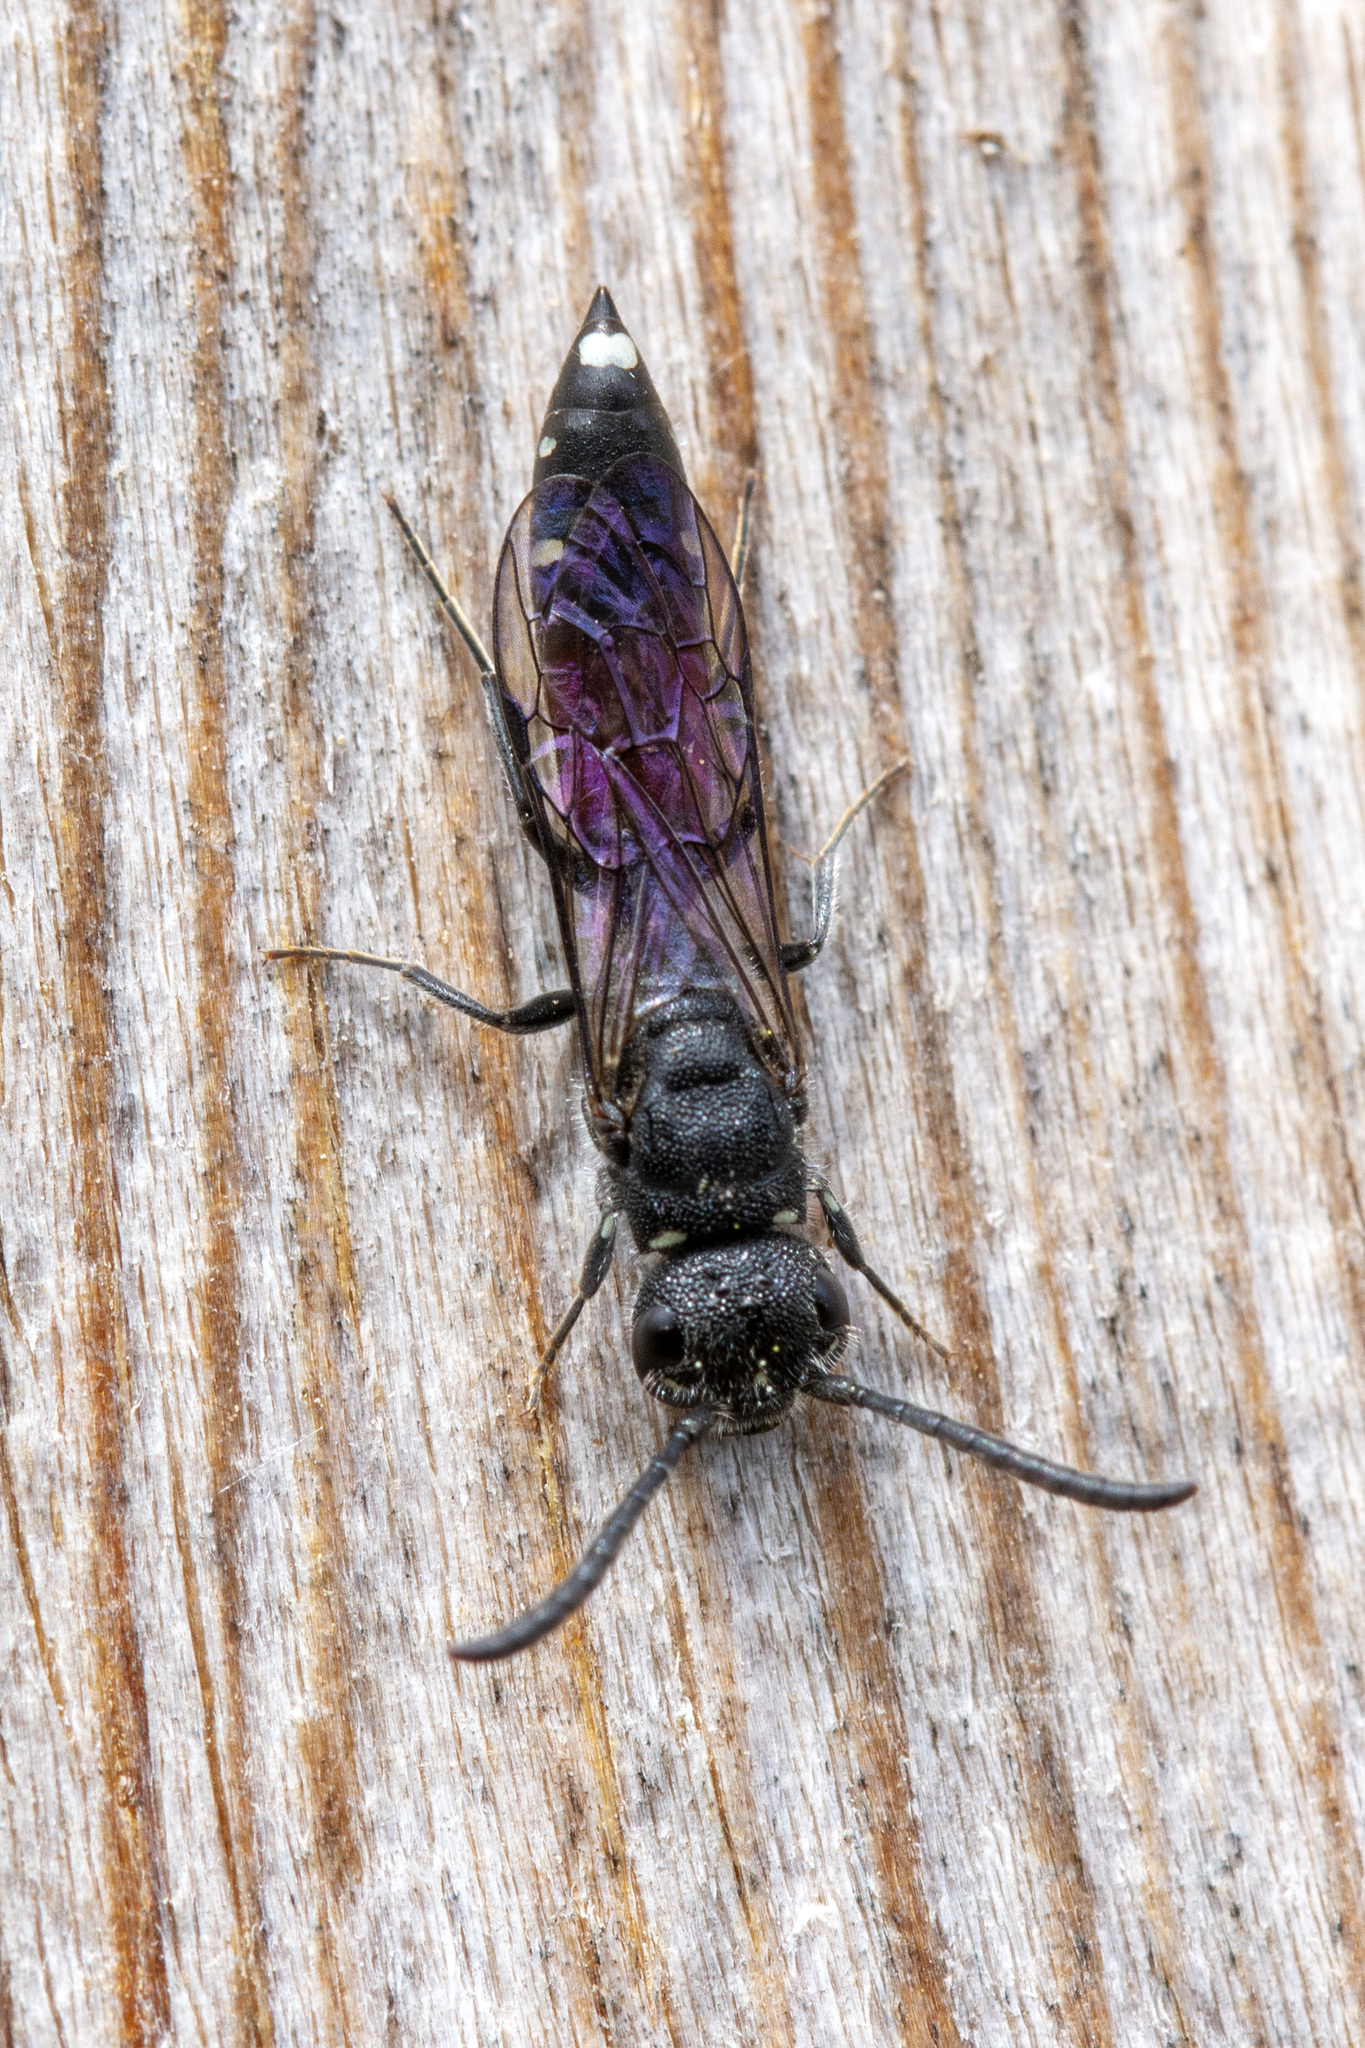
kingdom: Animalia
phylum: Arthropoda
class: Insecta
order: Hymenoptera
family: Sapygidae
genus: Sapyga
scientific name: Sapyga quinquepunctata
